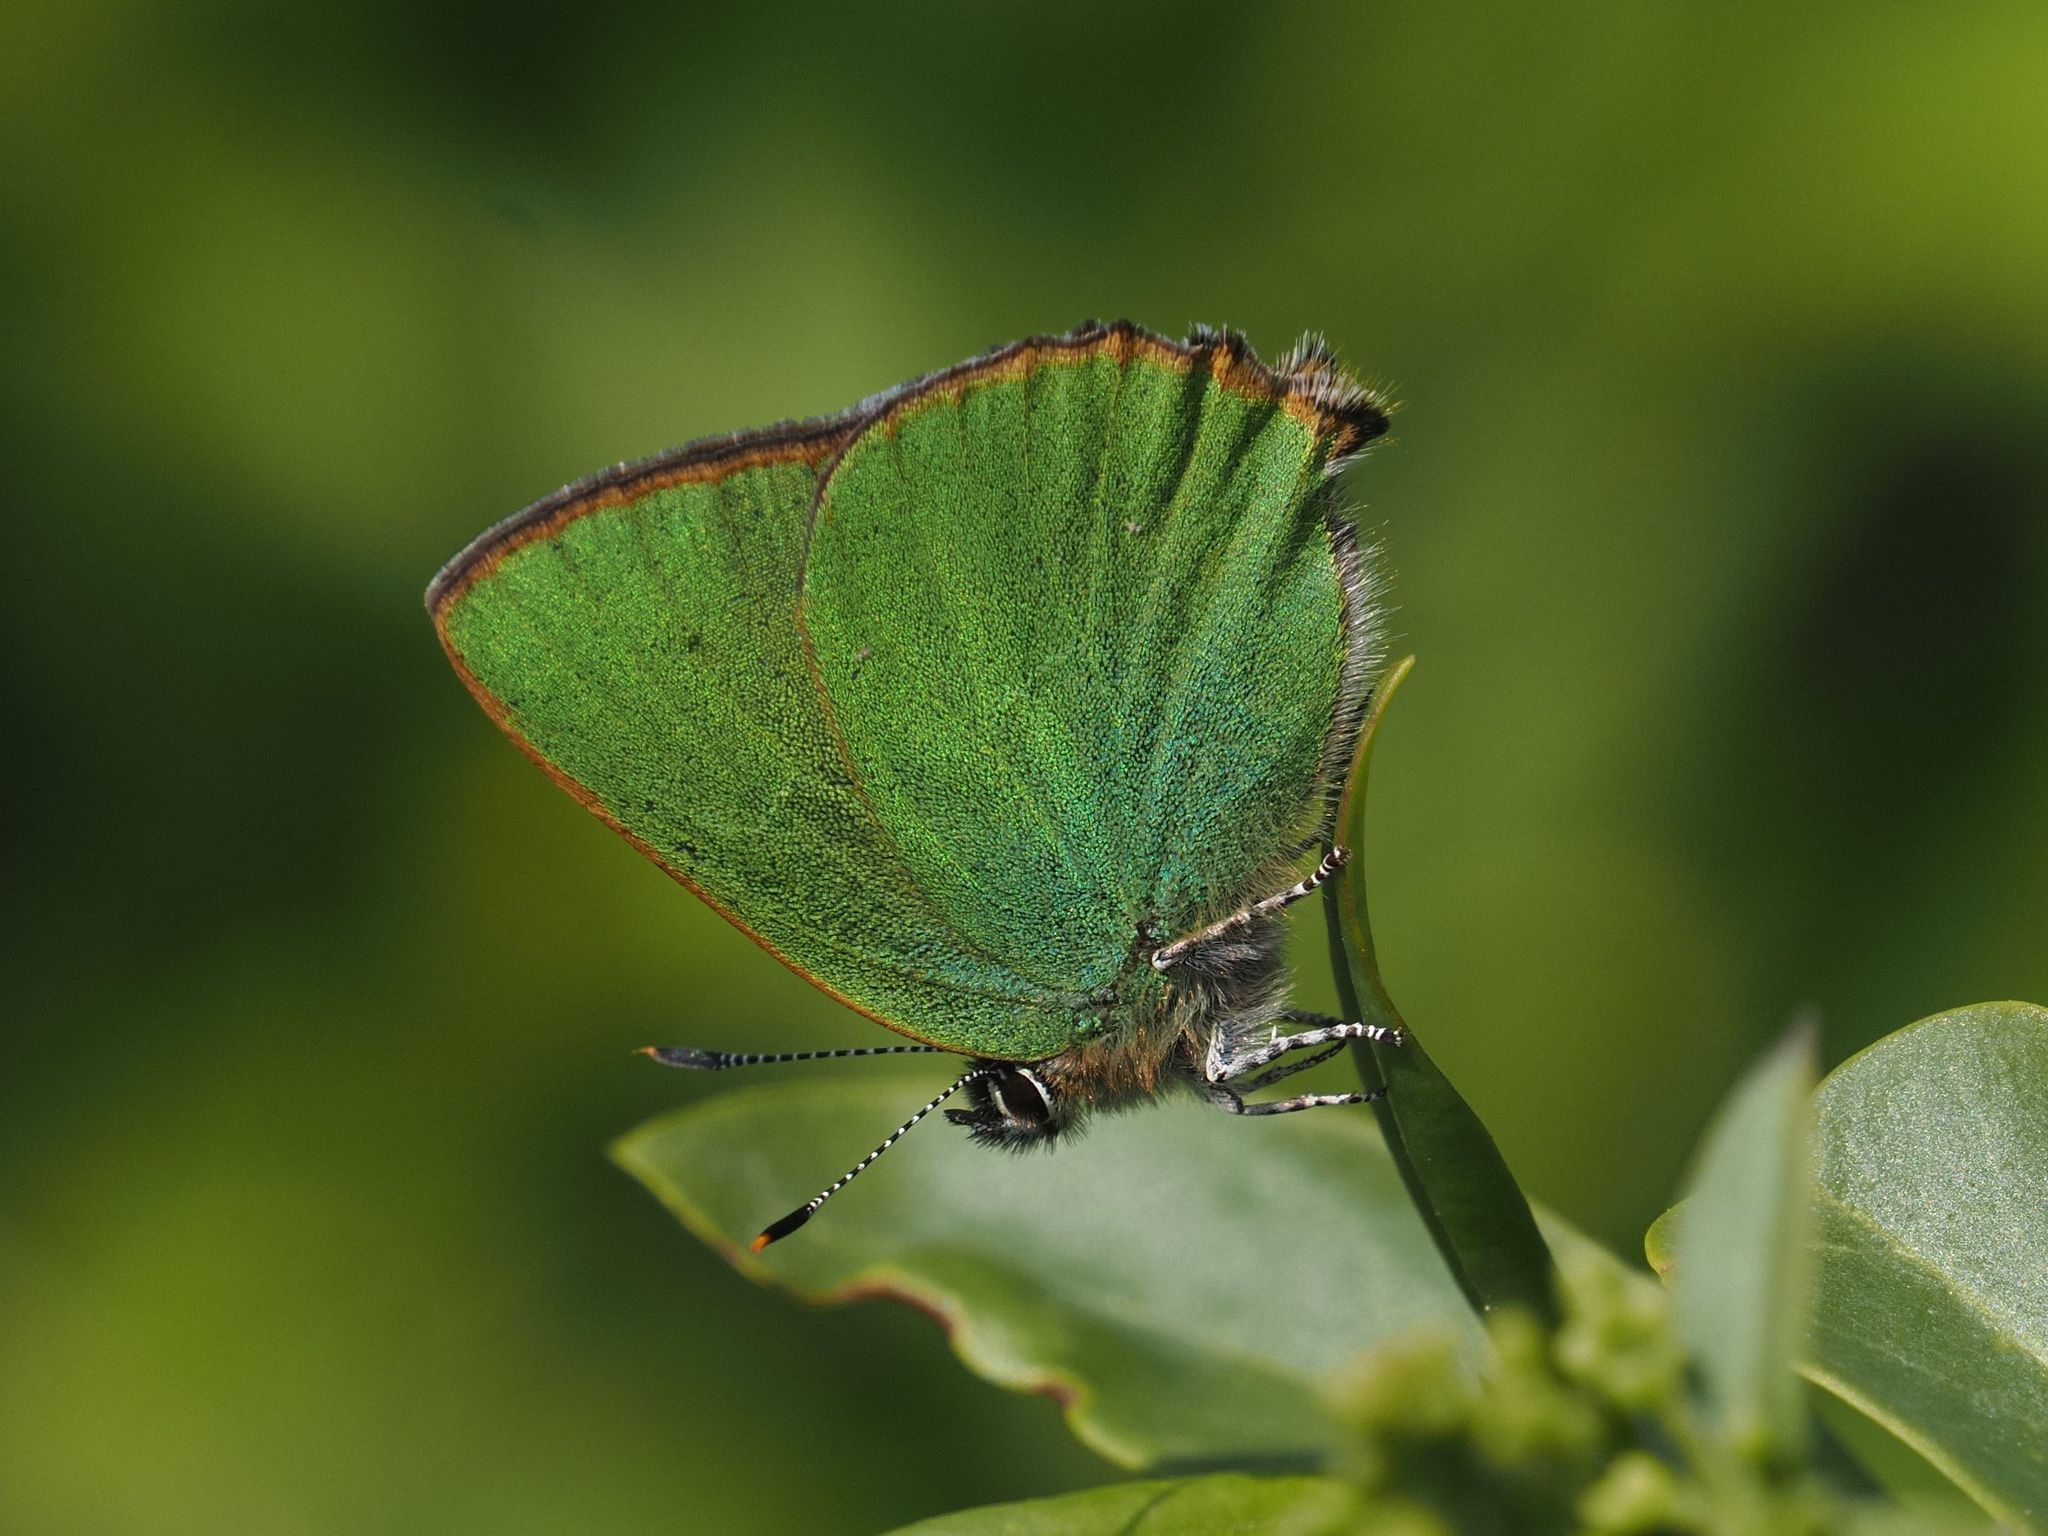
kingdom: Animalia
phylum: Arthropoda
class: Insecta
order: Lepidoptera
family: Lycaenidae
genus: Callophrys
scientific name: Callophrys rubi
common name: Green hairstreak
